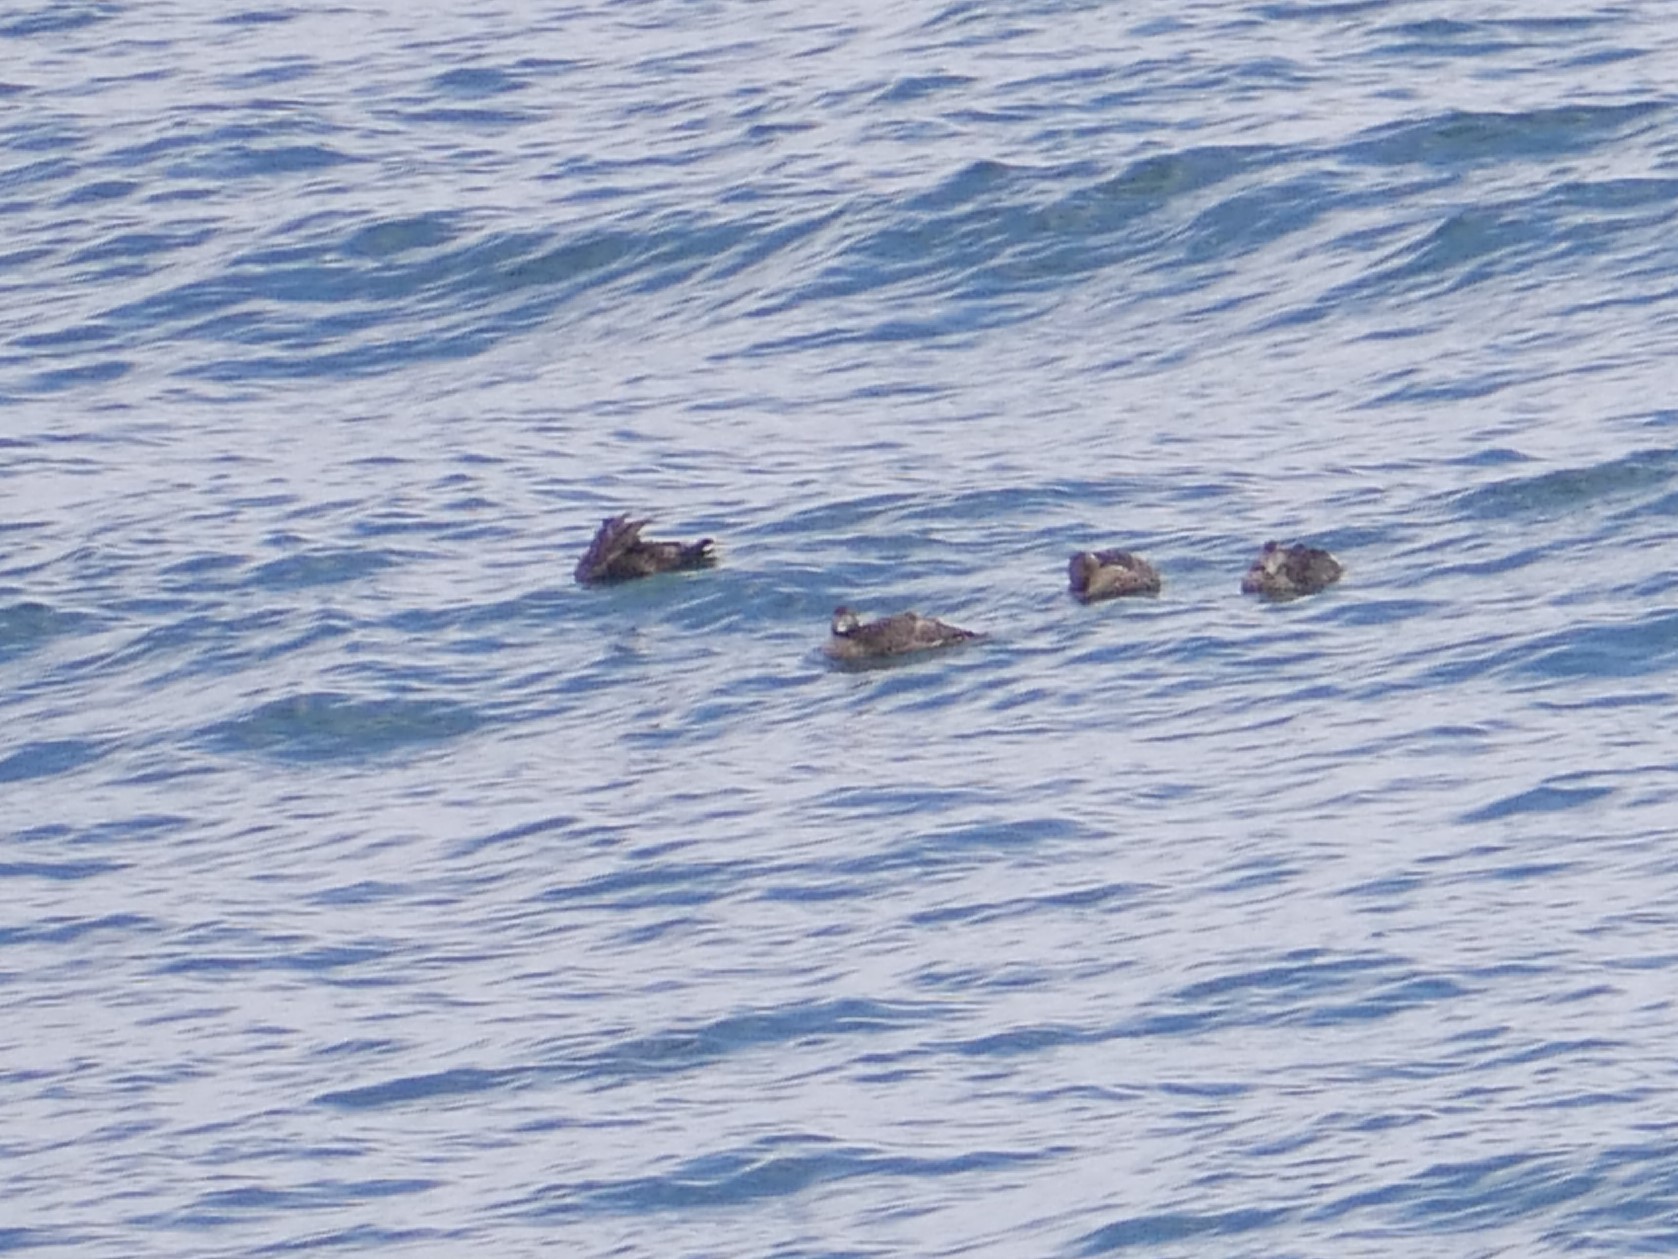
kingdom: Animalia
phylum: Chordata
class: Aves
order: Anseriformes
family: Anatidae
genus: Somateria
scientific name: Somateria mollissima
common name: Common eider
